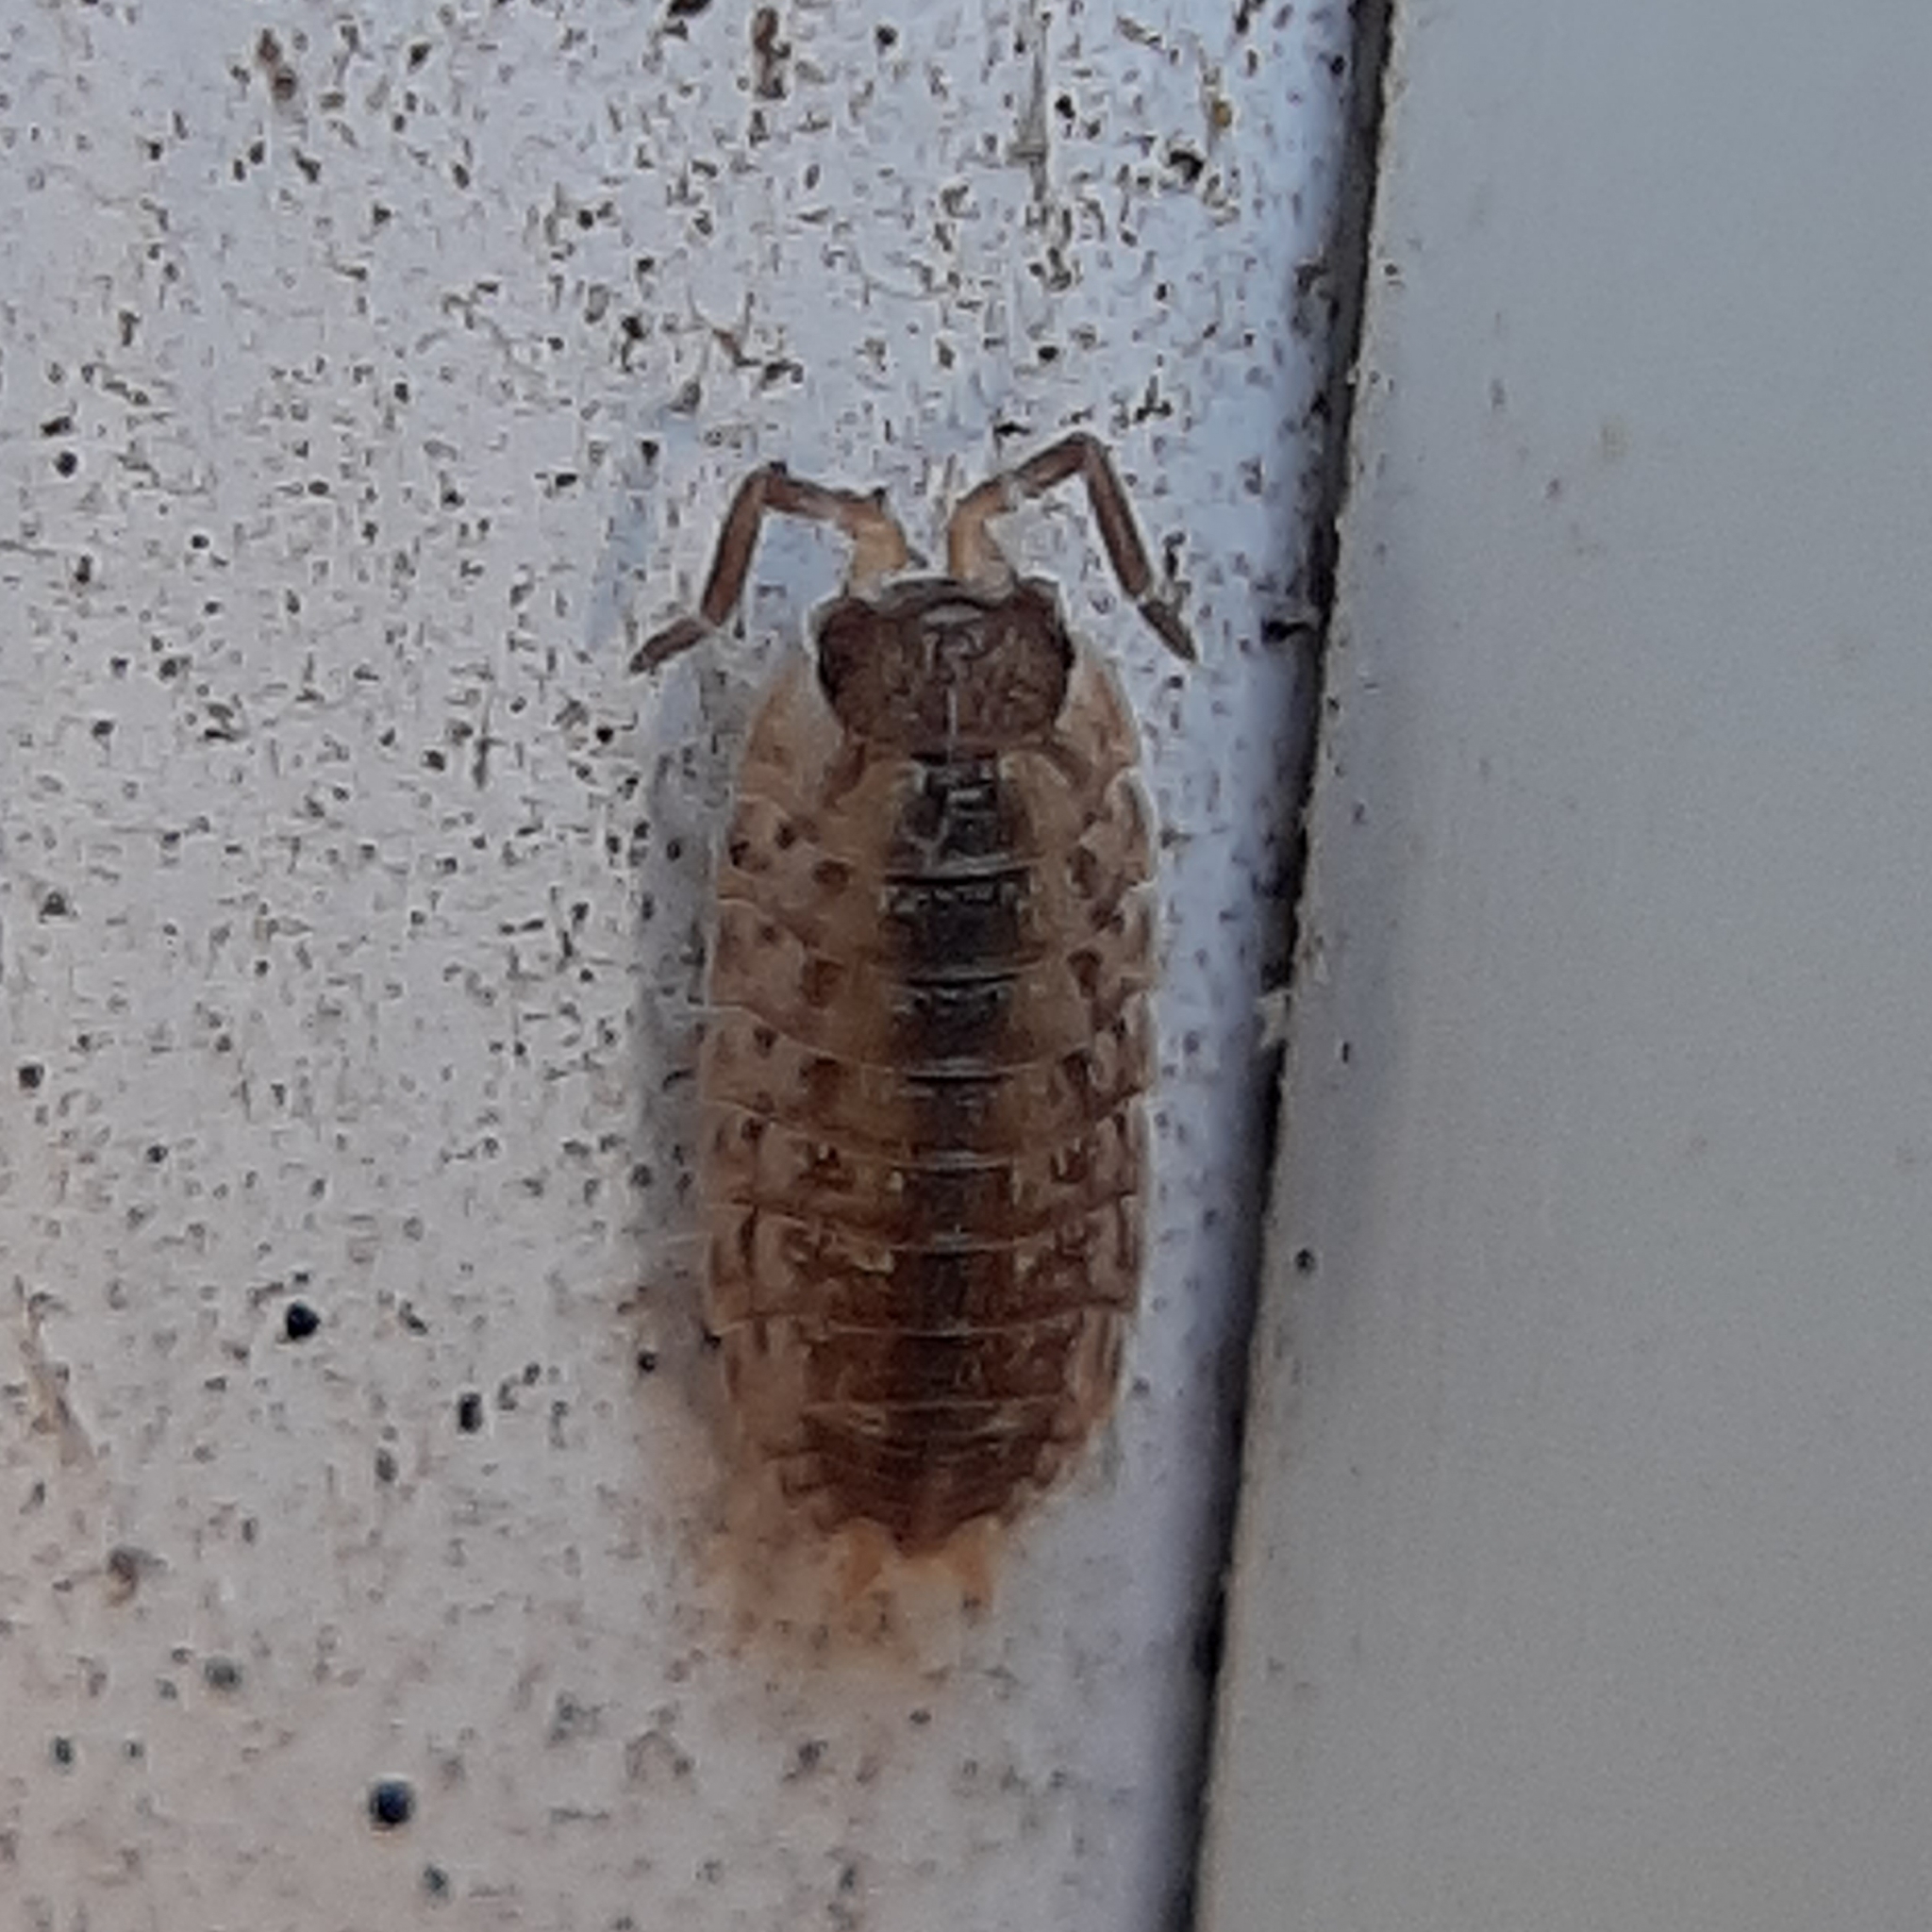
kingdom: Animalia
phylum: Arthropoda
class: Malacostraca
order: Isopoda
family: Porcellionidae
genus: Porcellio
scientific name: Porcellio spinicornis
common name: Painted woodlouse
